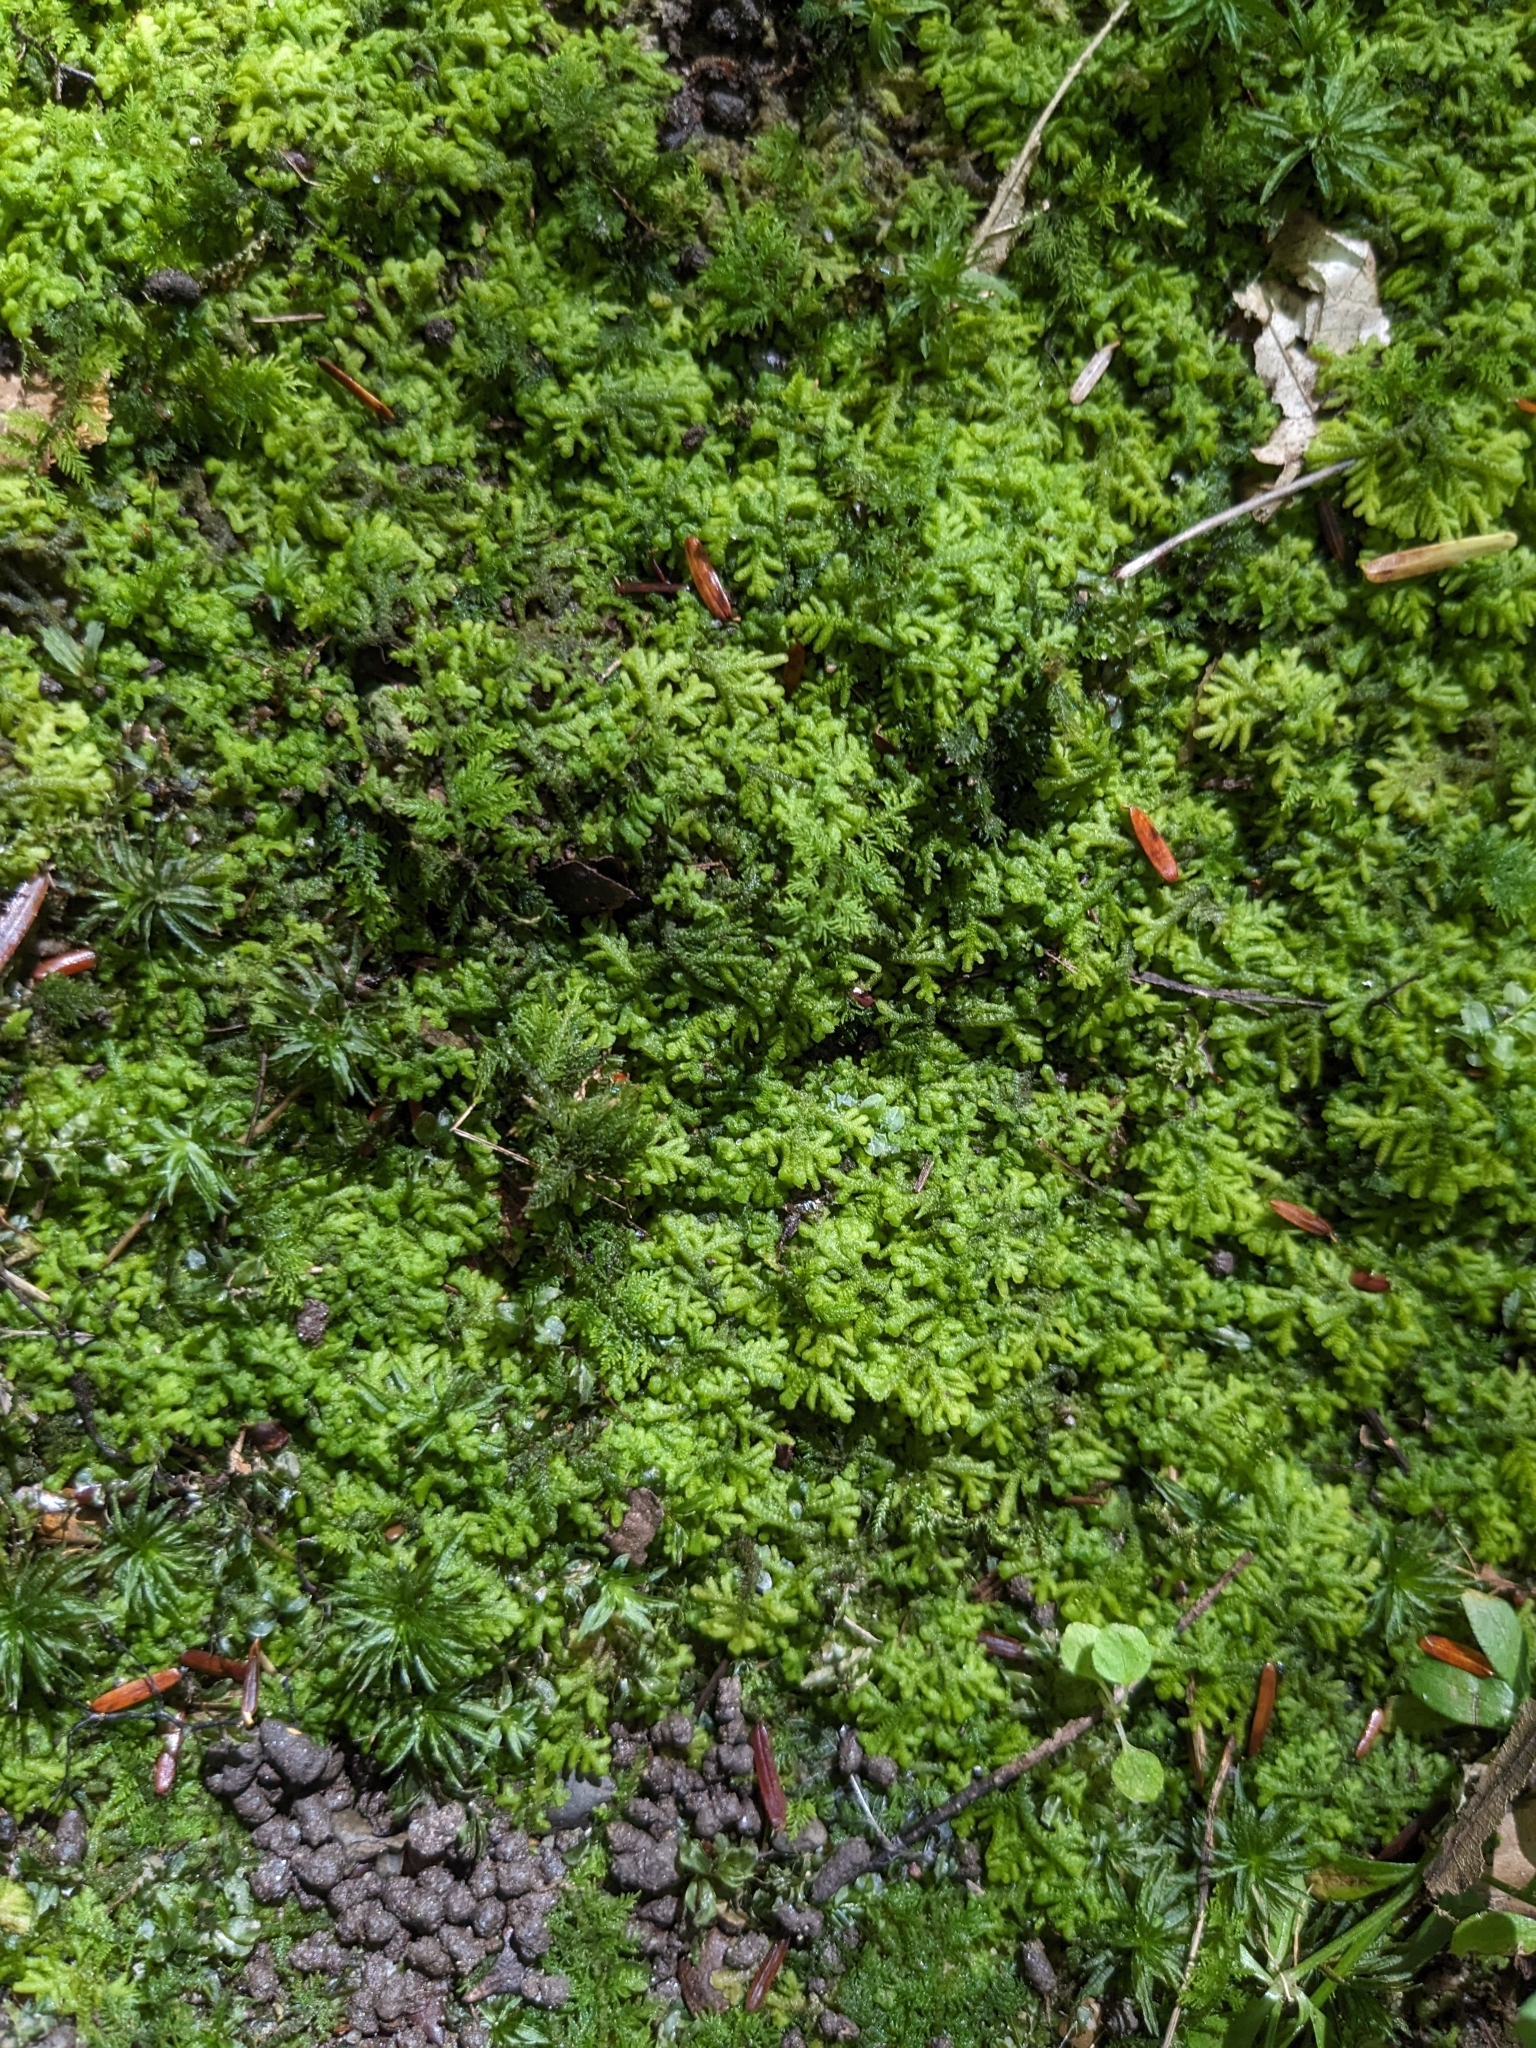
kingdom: Plantae
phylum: Marchantiophyta
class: Jungermanniopsida
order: Jungermanniales
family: Trichocoleaceae
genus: Trichocolea
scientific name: Trichocolea tomentella
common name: Woolly liverwort
